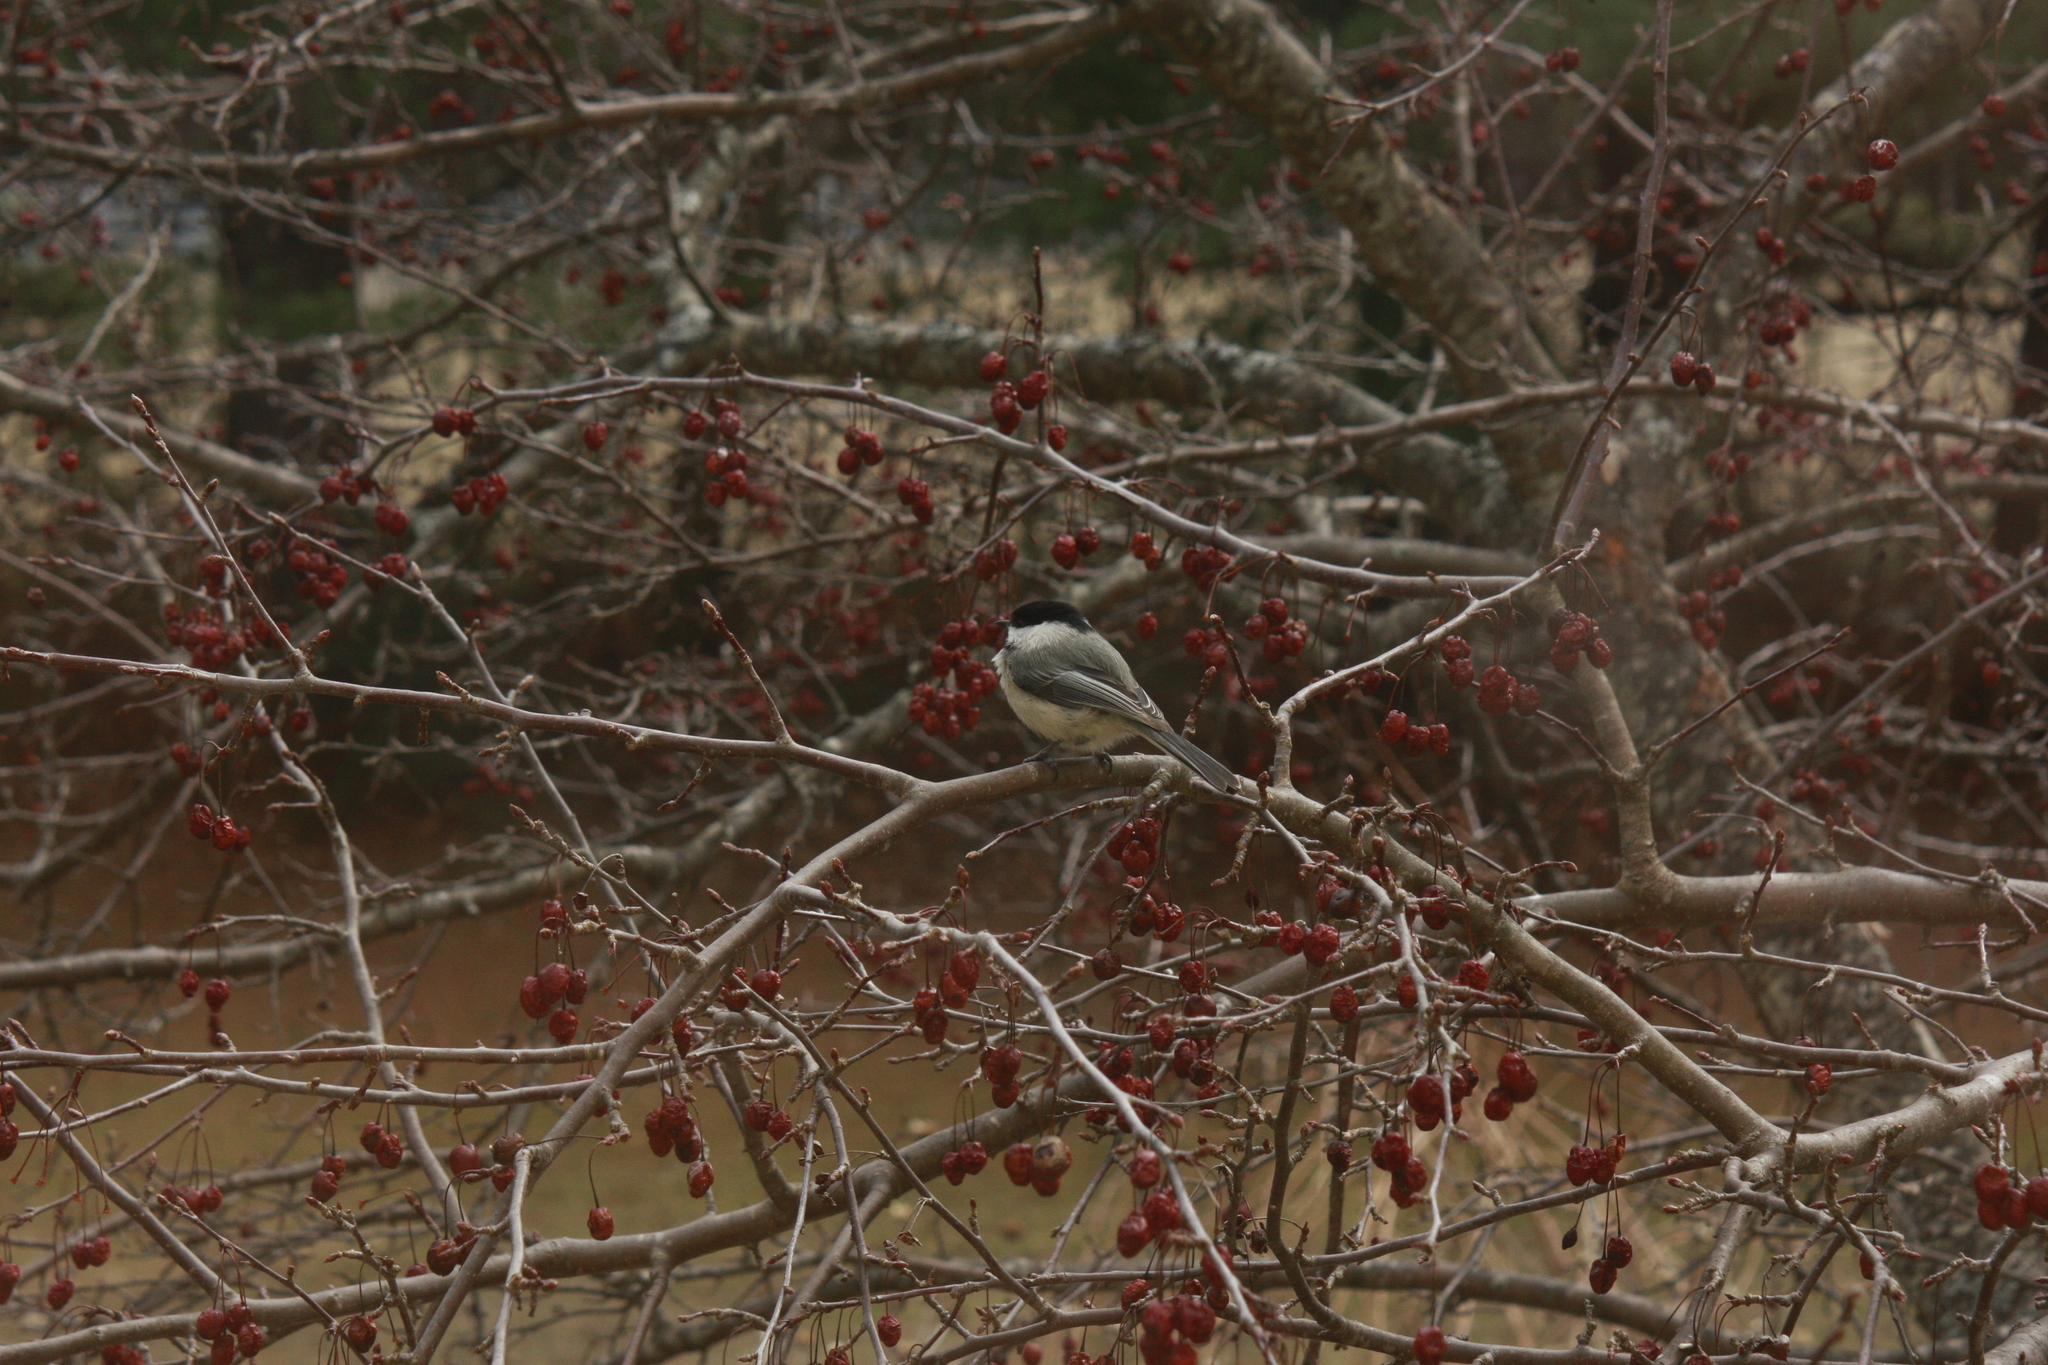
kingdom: Animalia
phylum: Chordata
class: Aves
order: Passeriformes
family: Paridae
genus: Poecile
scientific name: Poecile atricapillus
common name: Black-capped chickadee
